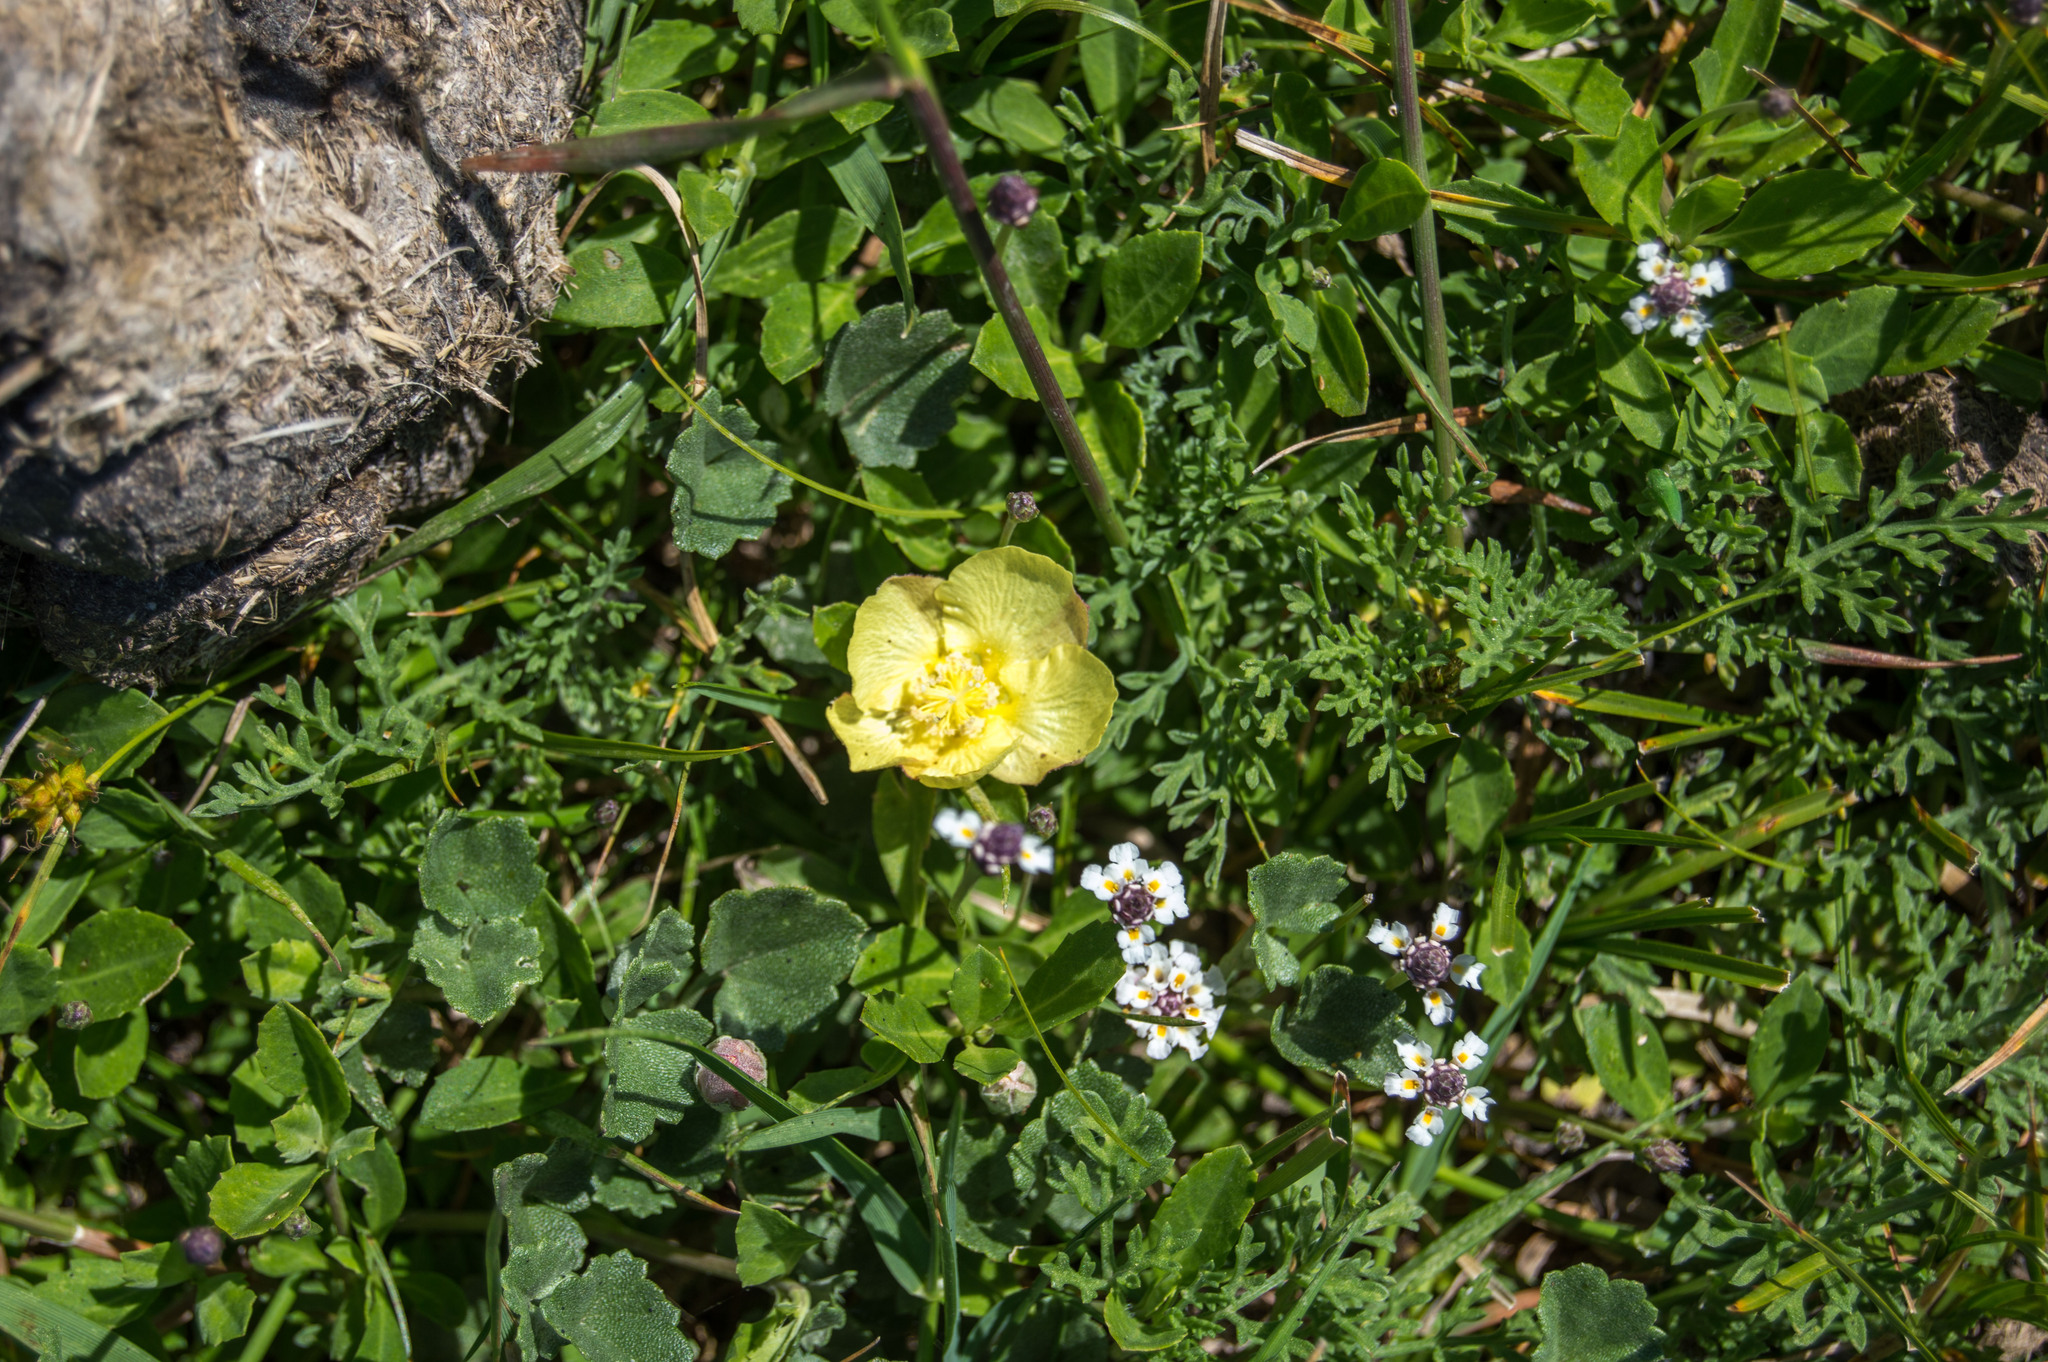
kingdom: Plantae
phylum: Tracheophyta
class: Magnoliopsida
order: Malvales
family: Malvaceae
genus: Malvella
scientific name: Malvella leprosa
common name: Alkali-mallow
